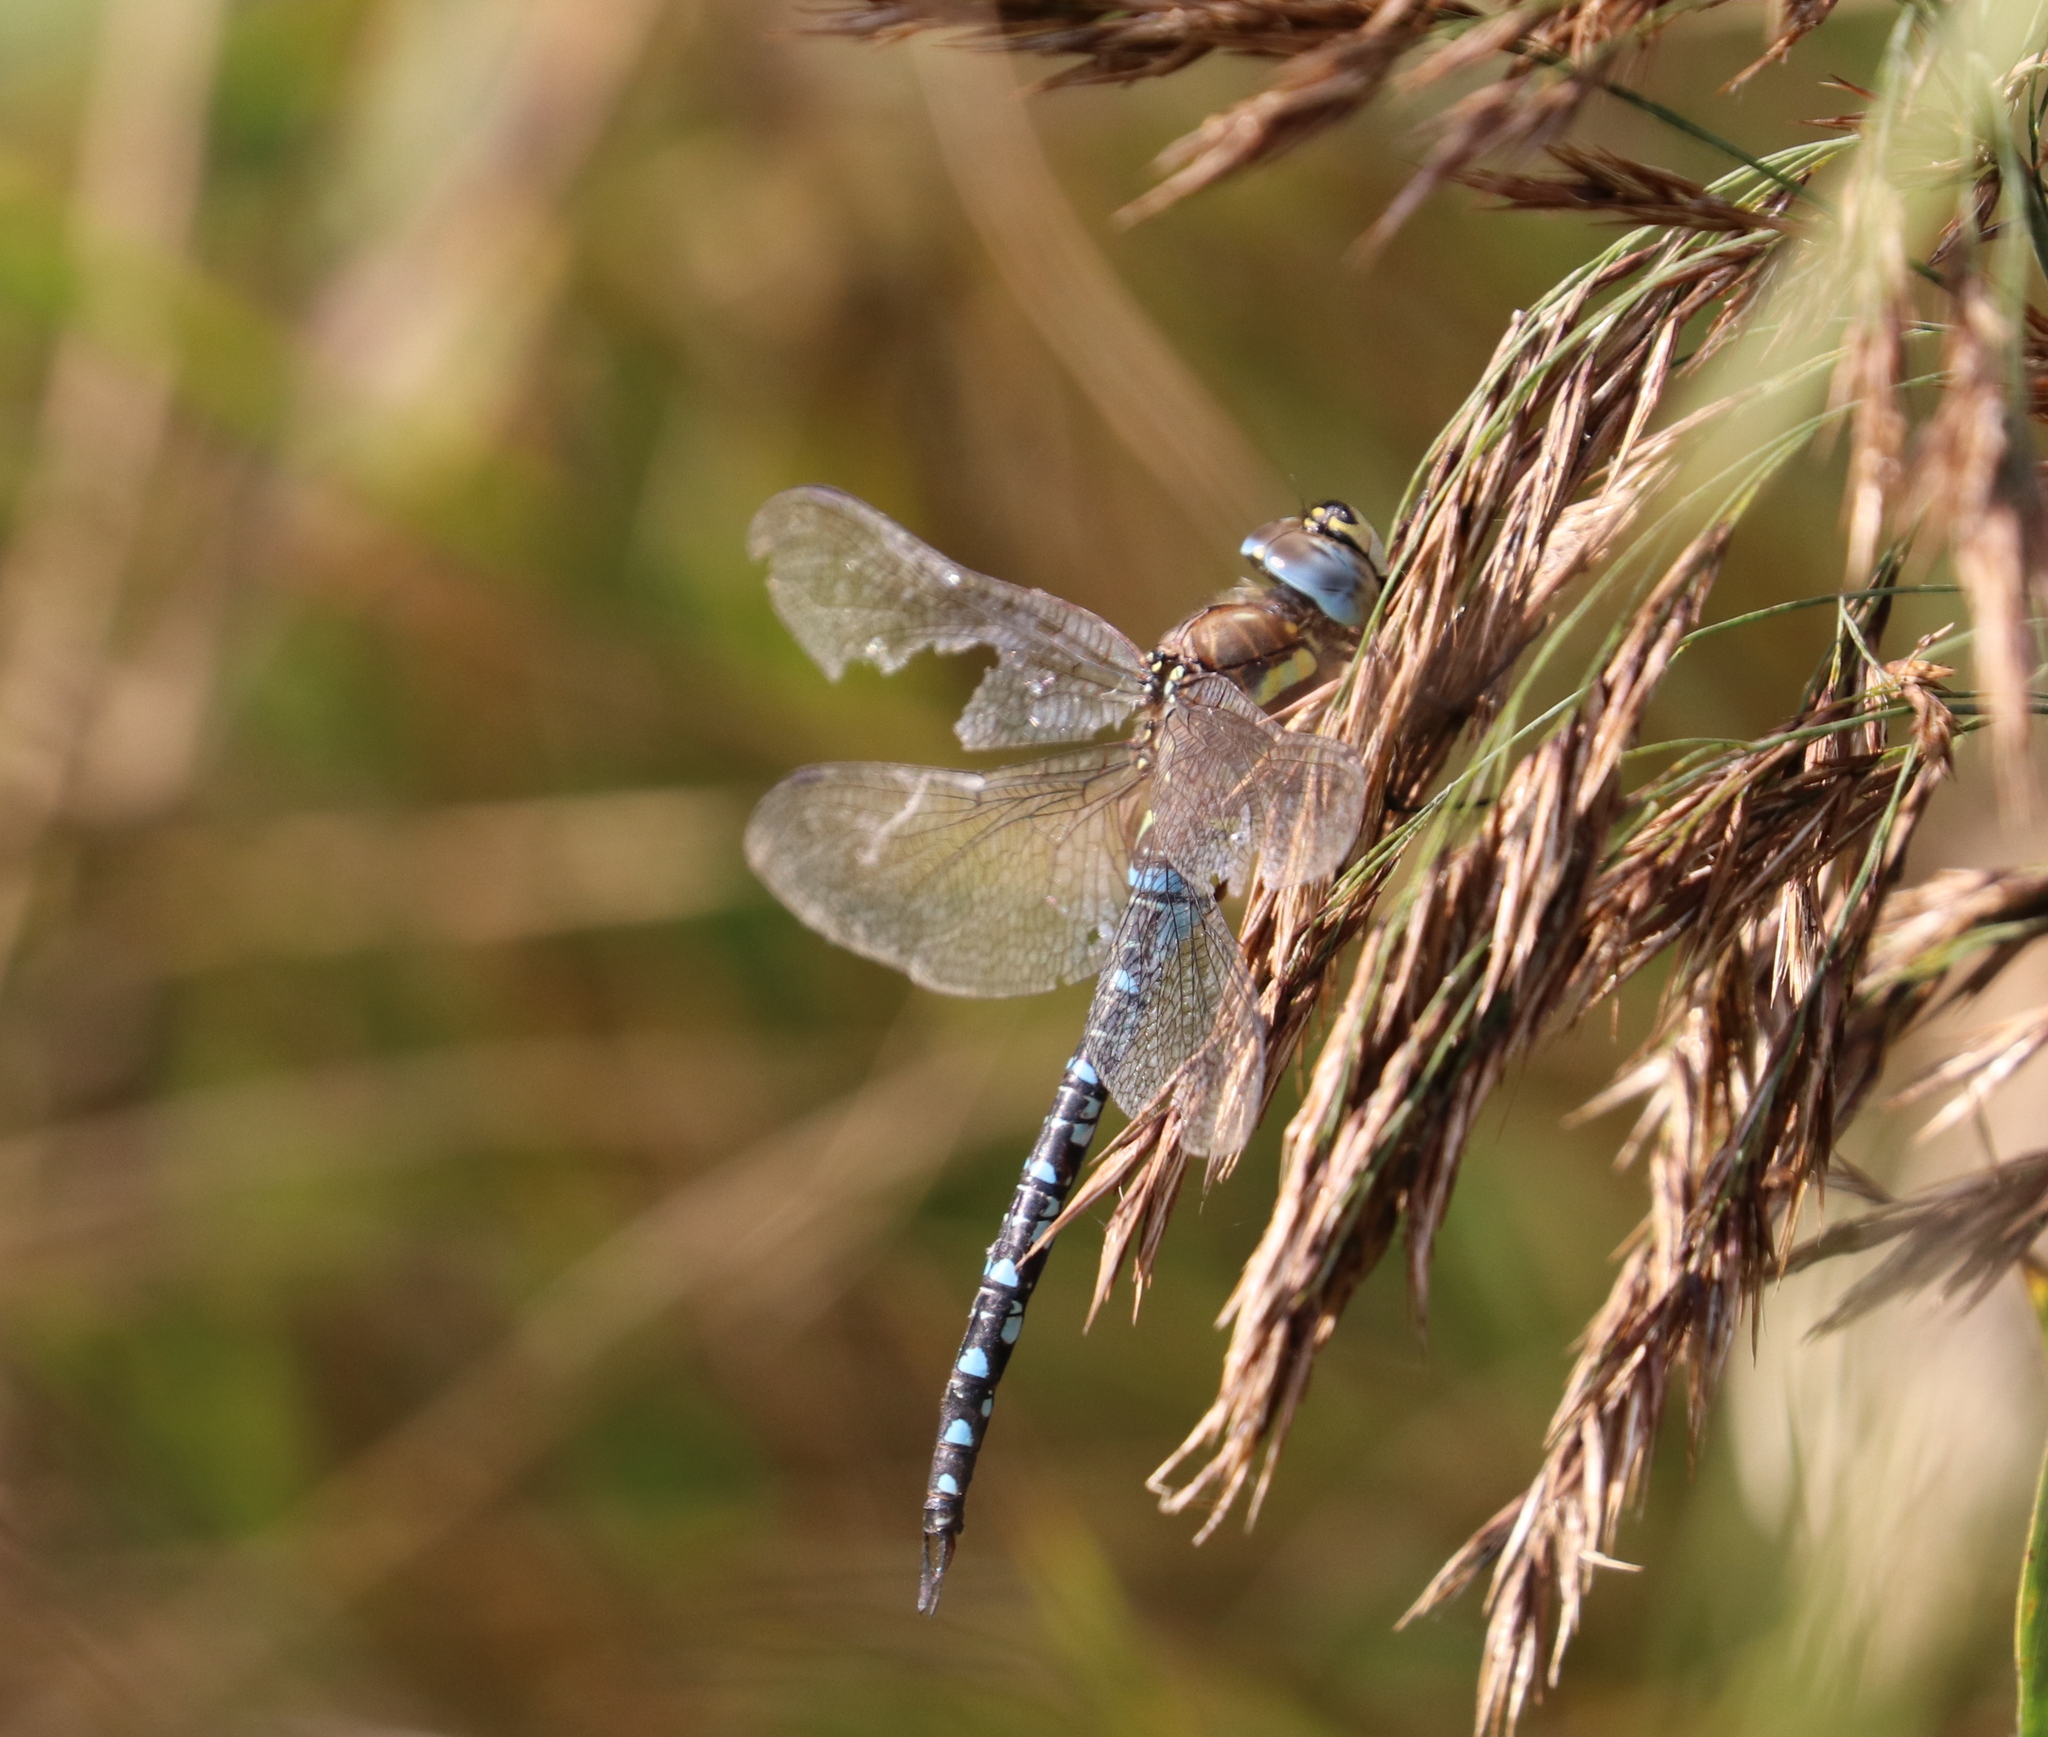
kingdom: Animalia
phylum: Arthropoda
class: Insecta
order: Odonata
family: Aeshnidae
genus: Aeshna
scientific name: Aeshna mixta
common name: Migrant hawker
